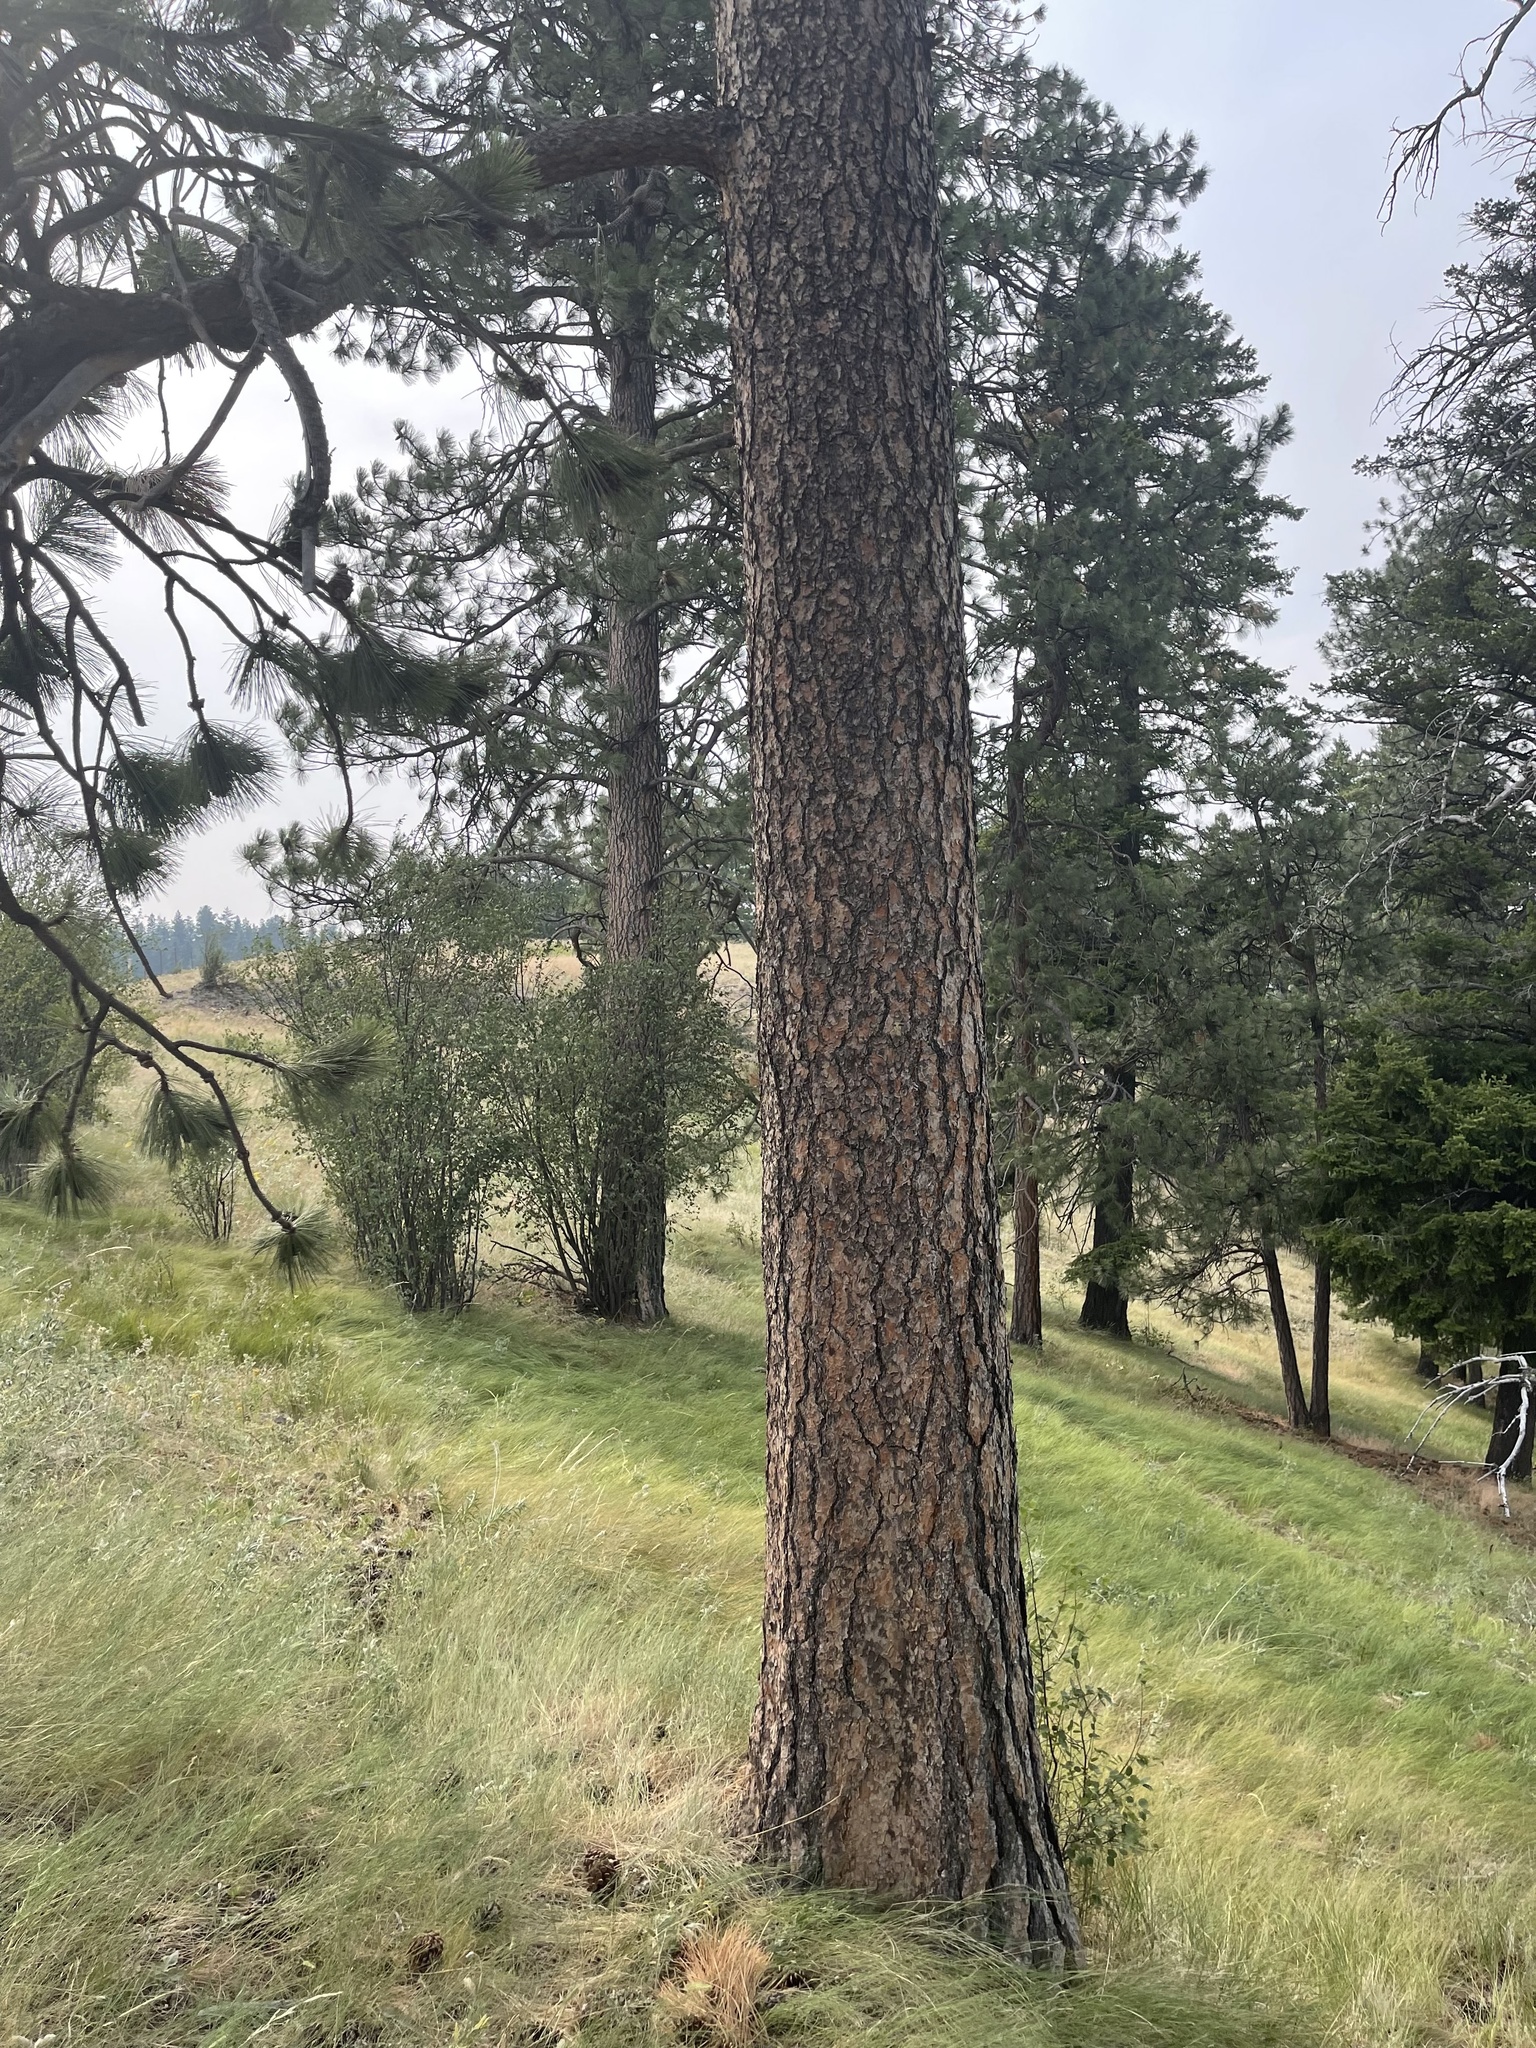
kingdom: Plantae
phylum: Tracheophyta
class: Pinopsida
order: Pinales
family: Pinaceae
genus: Pinus
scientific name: Pinus ponderosa
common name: Western yellow-pine
